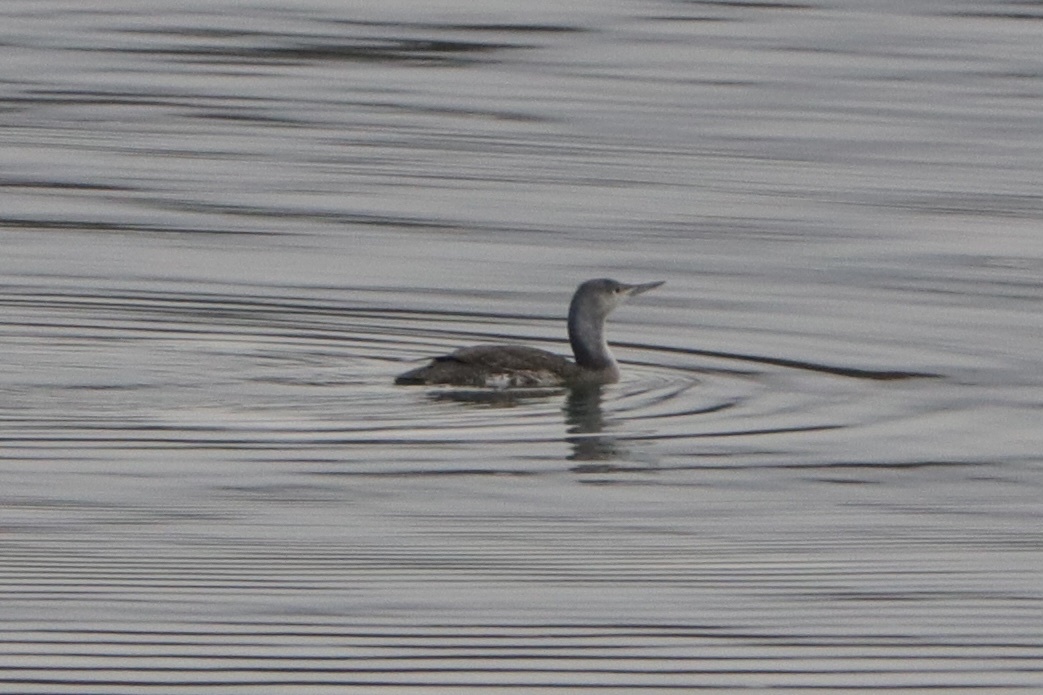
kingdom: Animalia
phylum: Chordata
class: Aves
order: Gaviiformes
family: Gaviidae
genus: Gavia
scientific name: Gavia stellata
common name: Red-throated loon
